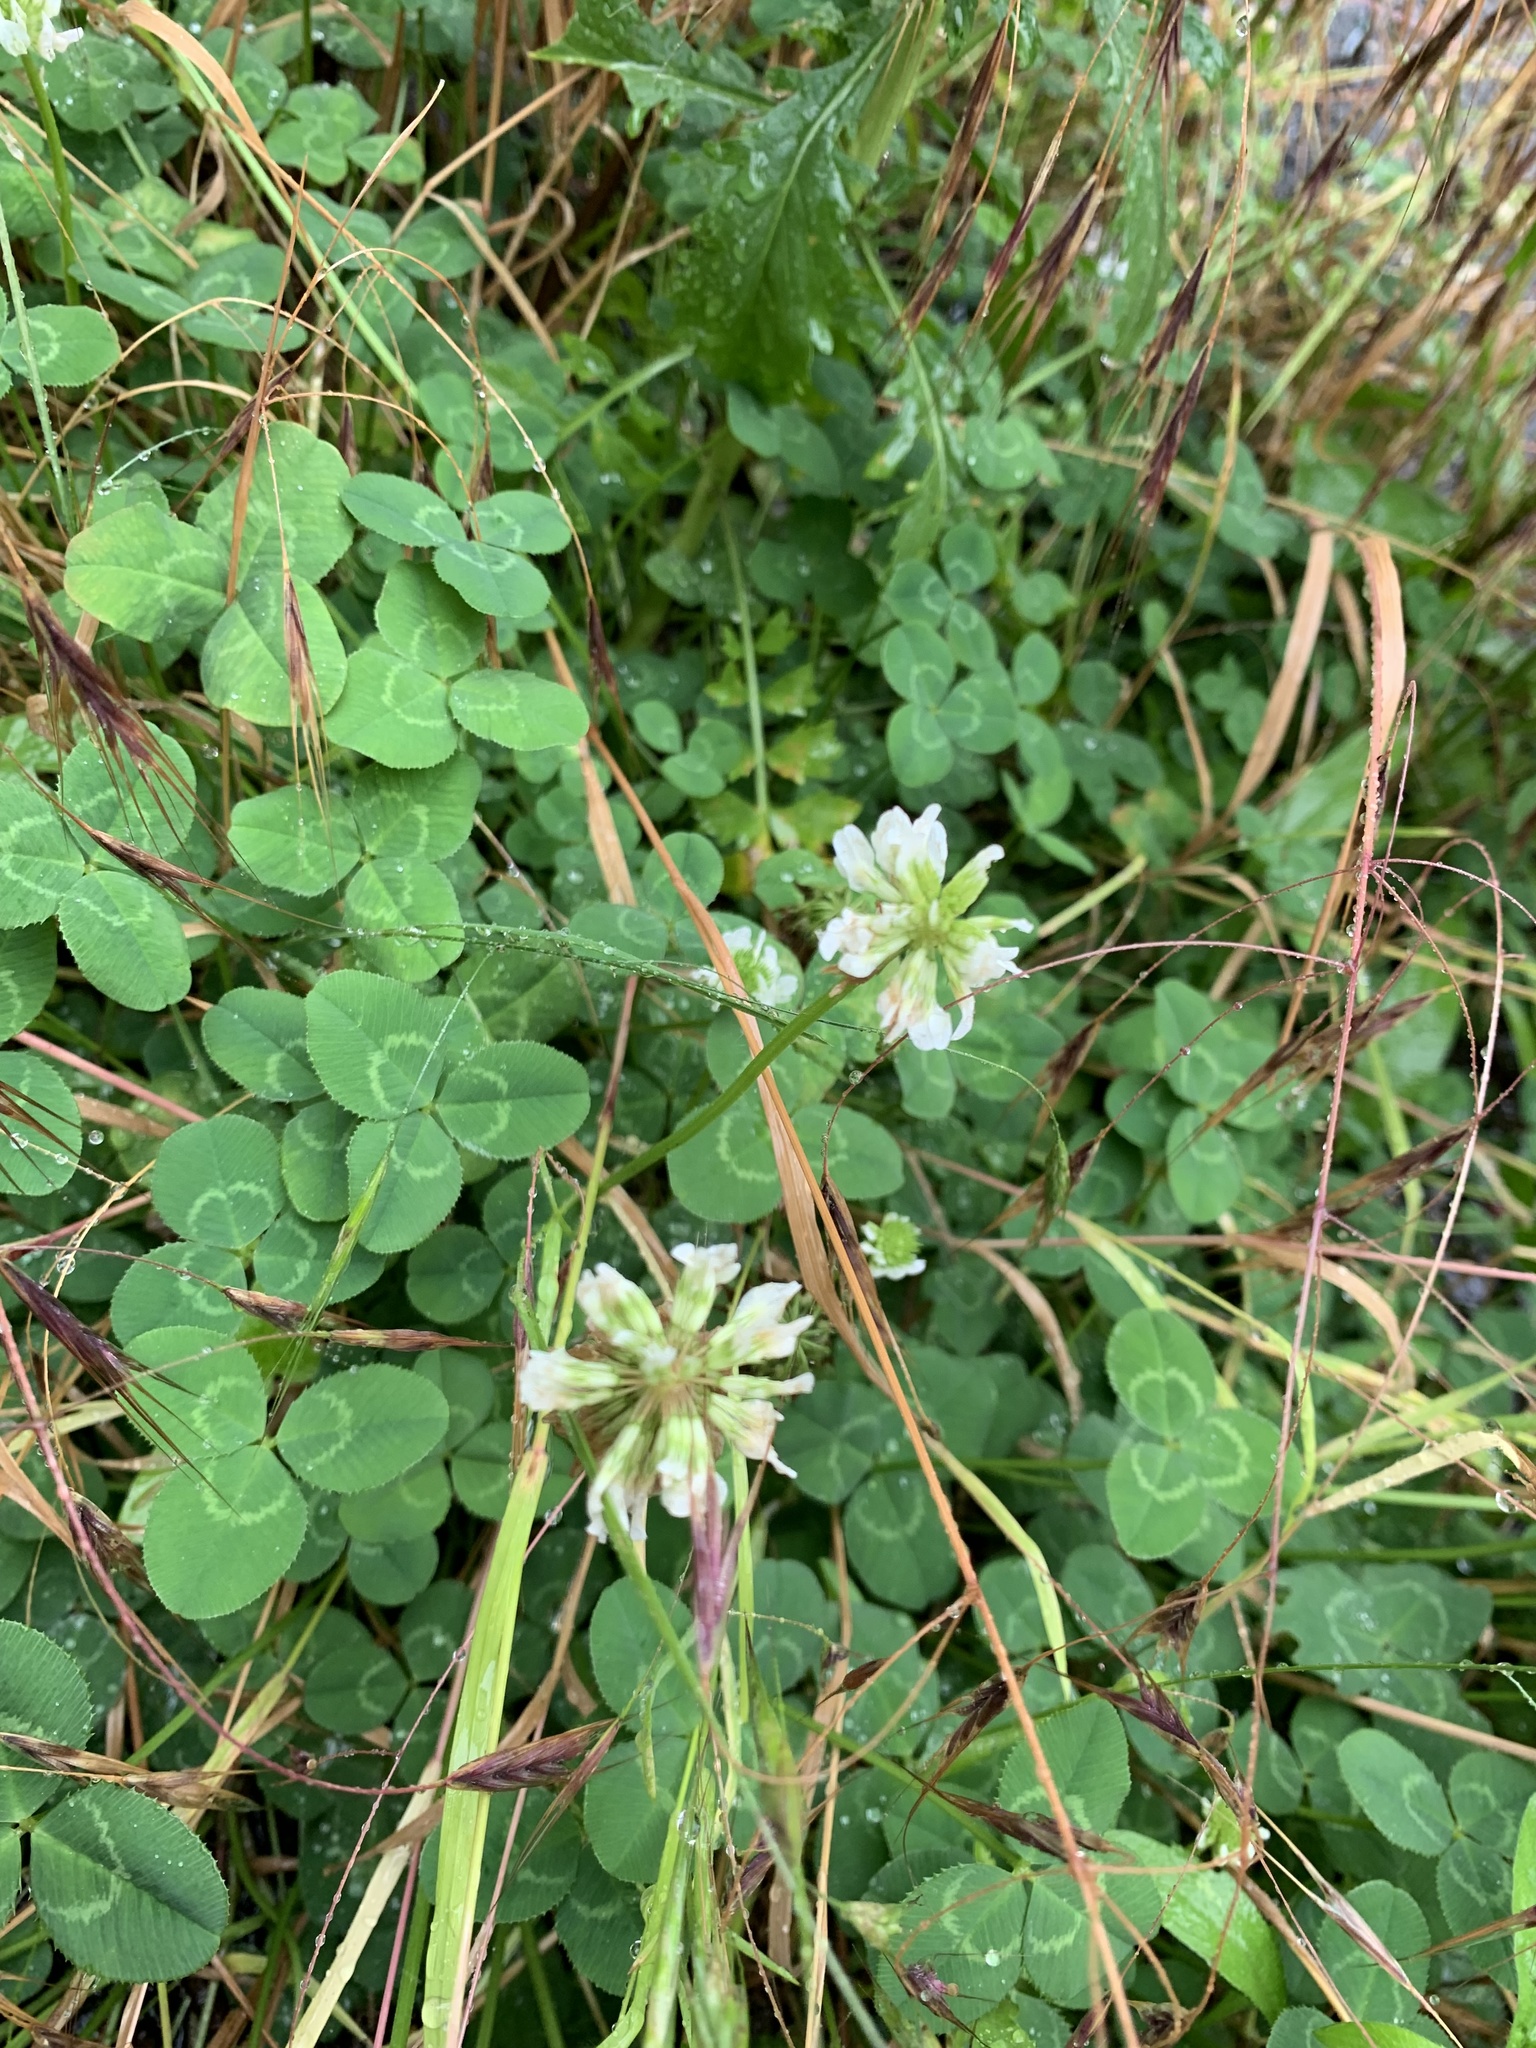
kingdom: Plantae
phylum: Tracheophyta
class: Magnoliopsida
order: Fabales
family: Fabaceae
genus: Trifolium
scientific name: Trifolium repens
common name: White clover
